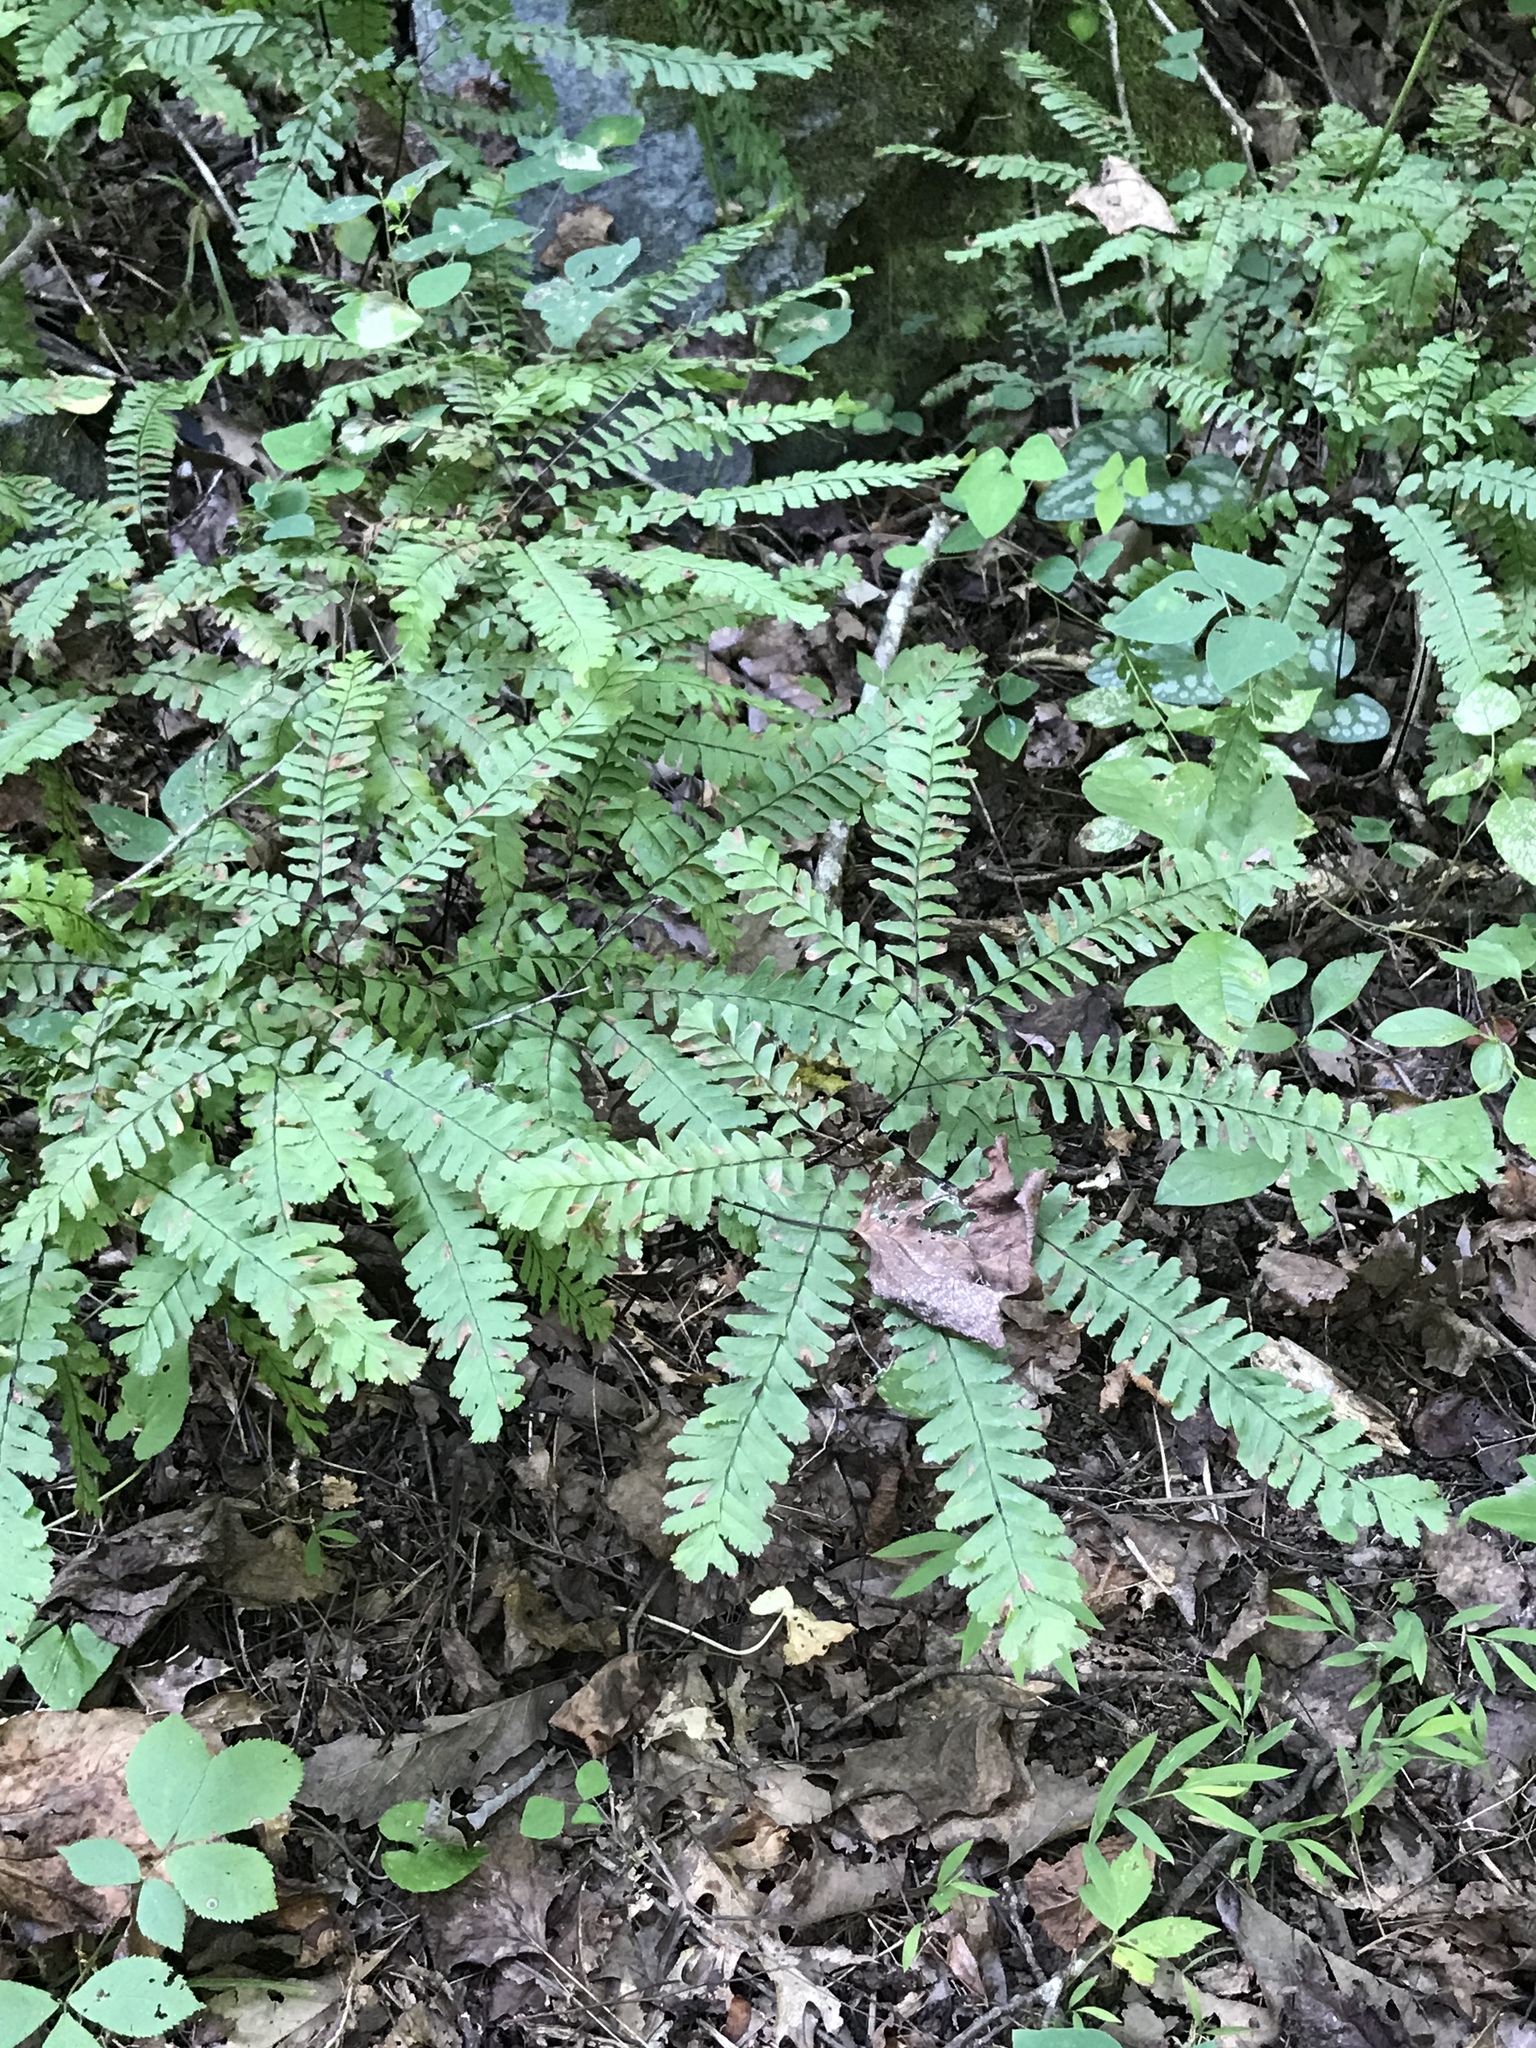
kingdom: Plantae
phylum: Tracheophyta
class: Polypodiopsida
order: Polypodiales
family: Pteridaceae
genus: Adiantum
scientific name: Adiantum pedatum
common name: Five-finger fern
